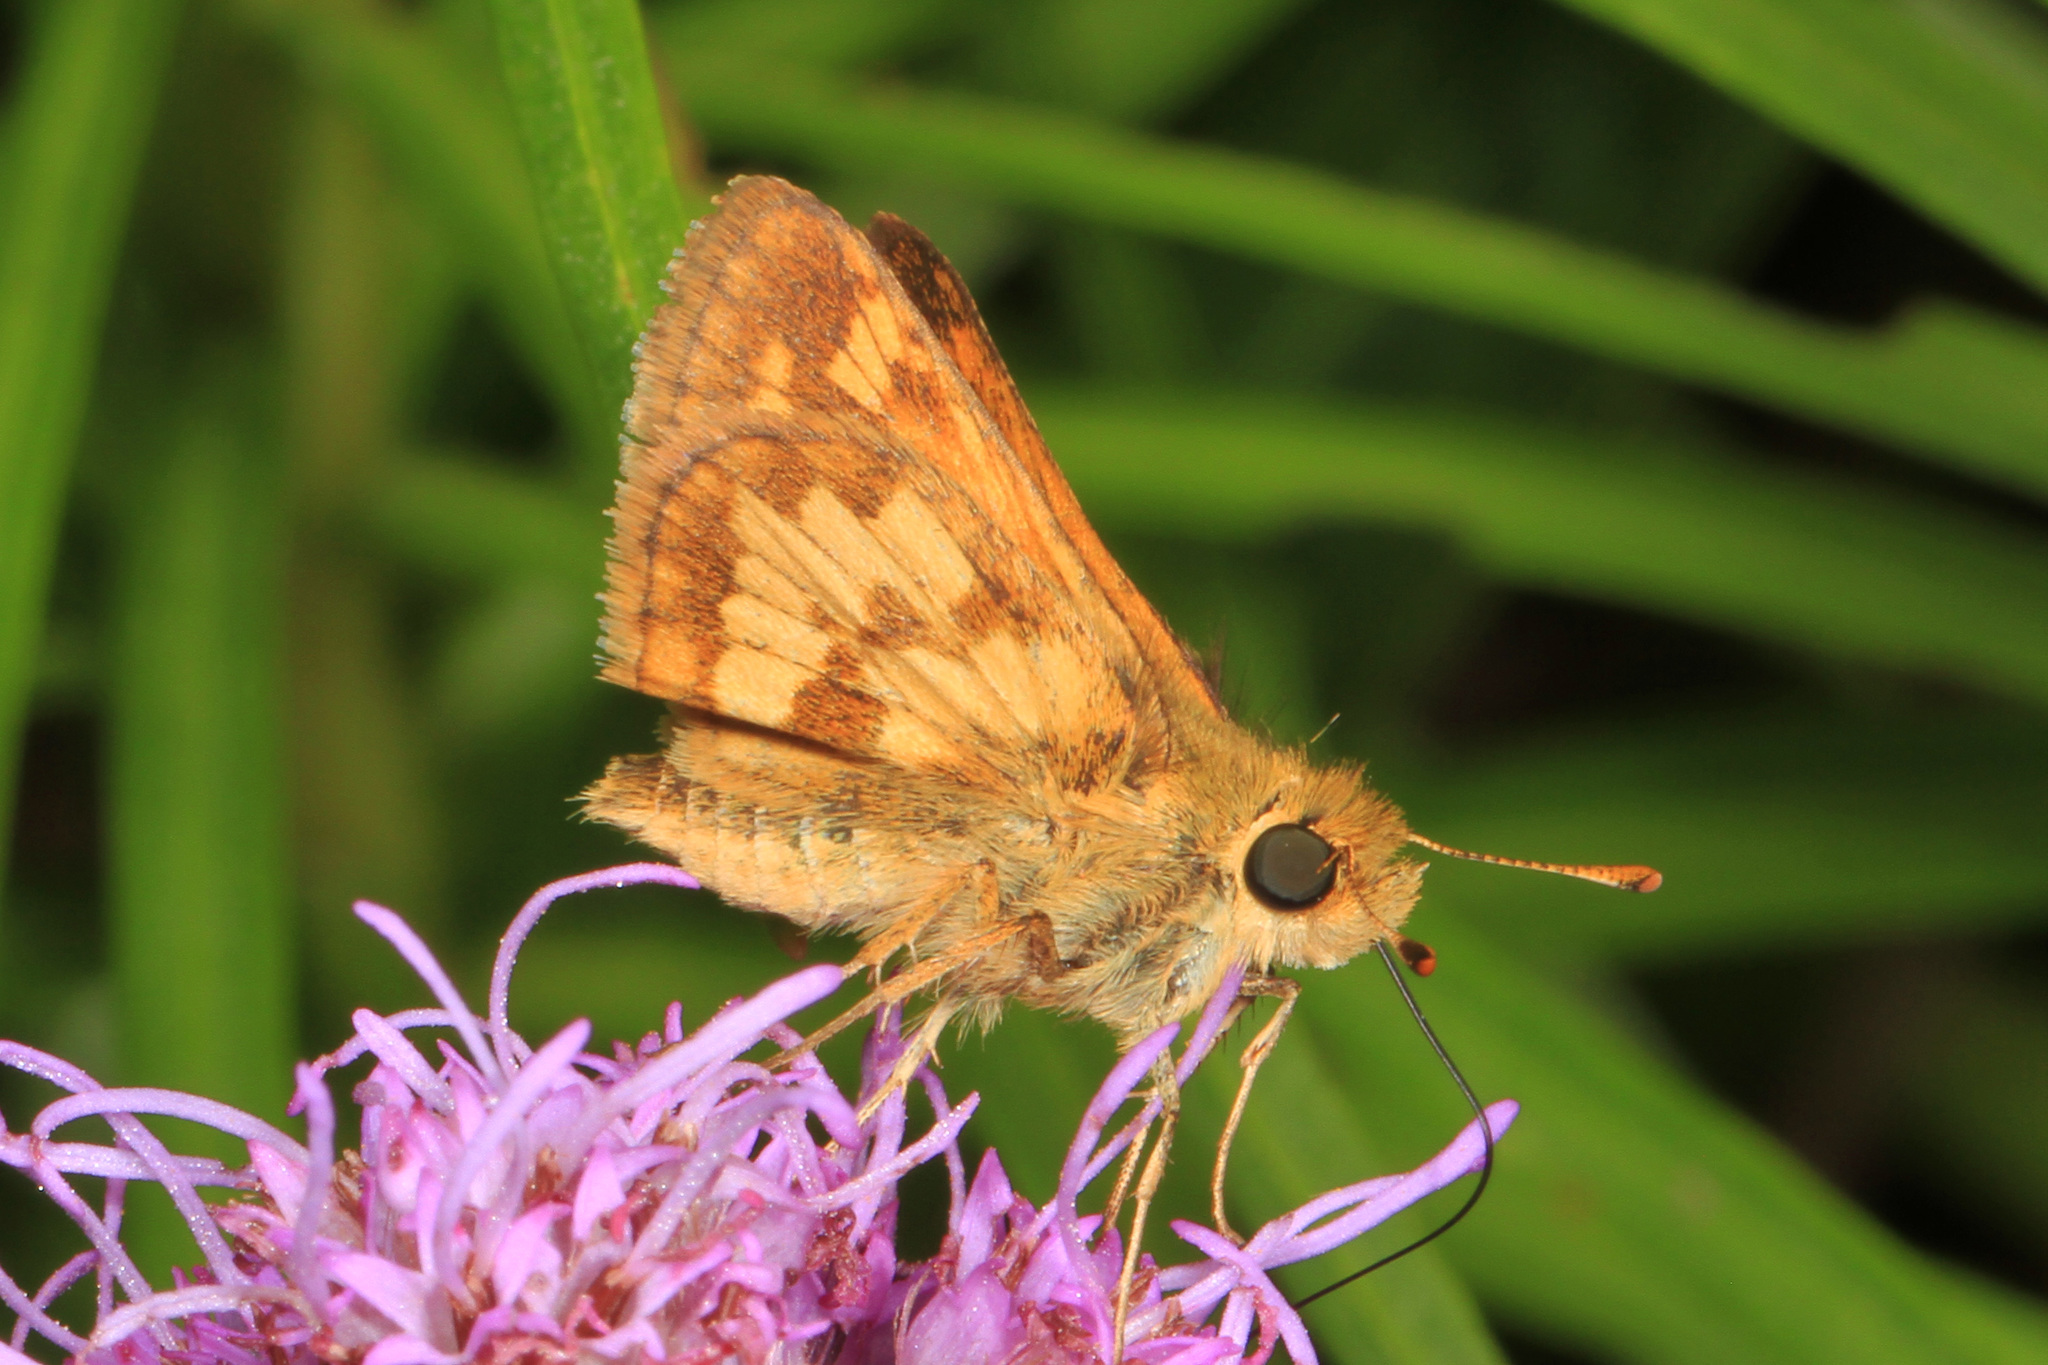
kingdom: Animalia
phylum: Arthropoda
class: Insecta
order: Lepidoptera
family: Hesperiidae
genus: Polites
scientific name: Polites coras
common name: Peck's skipper
